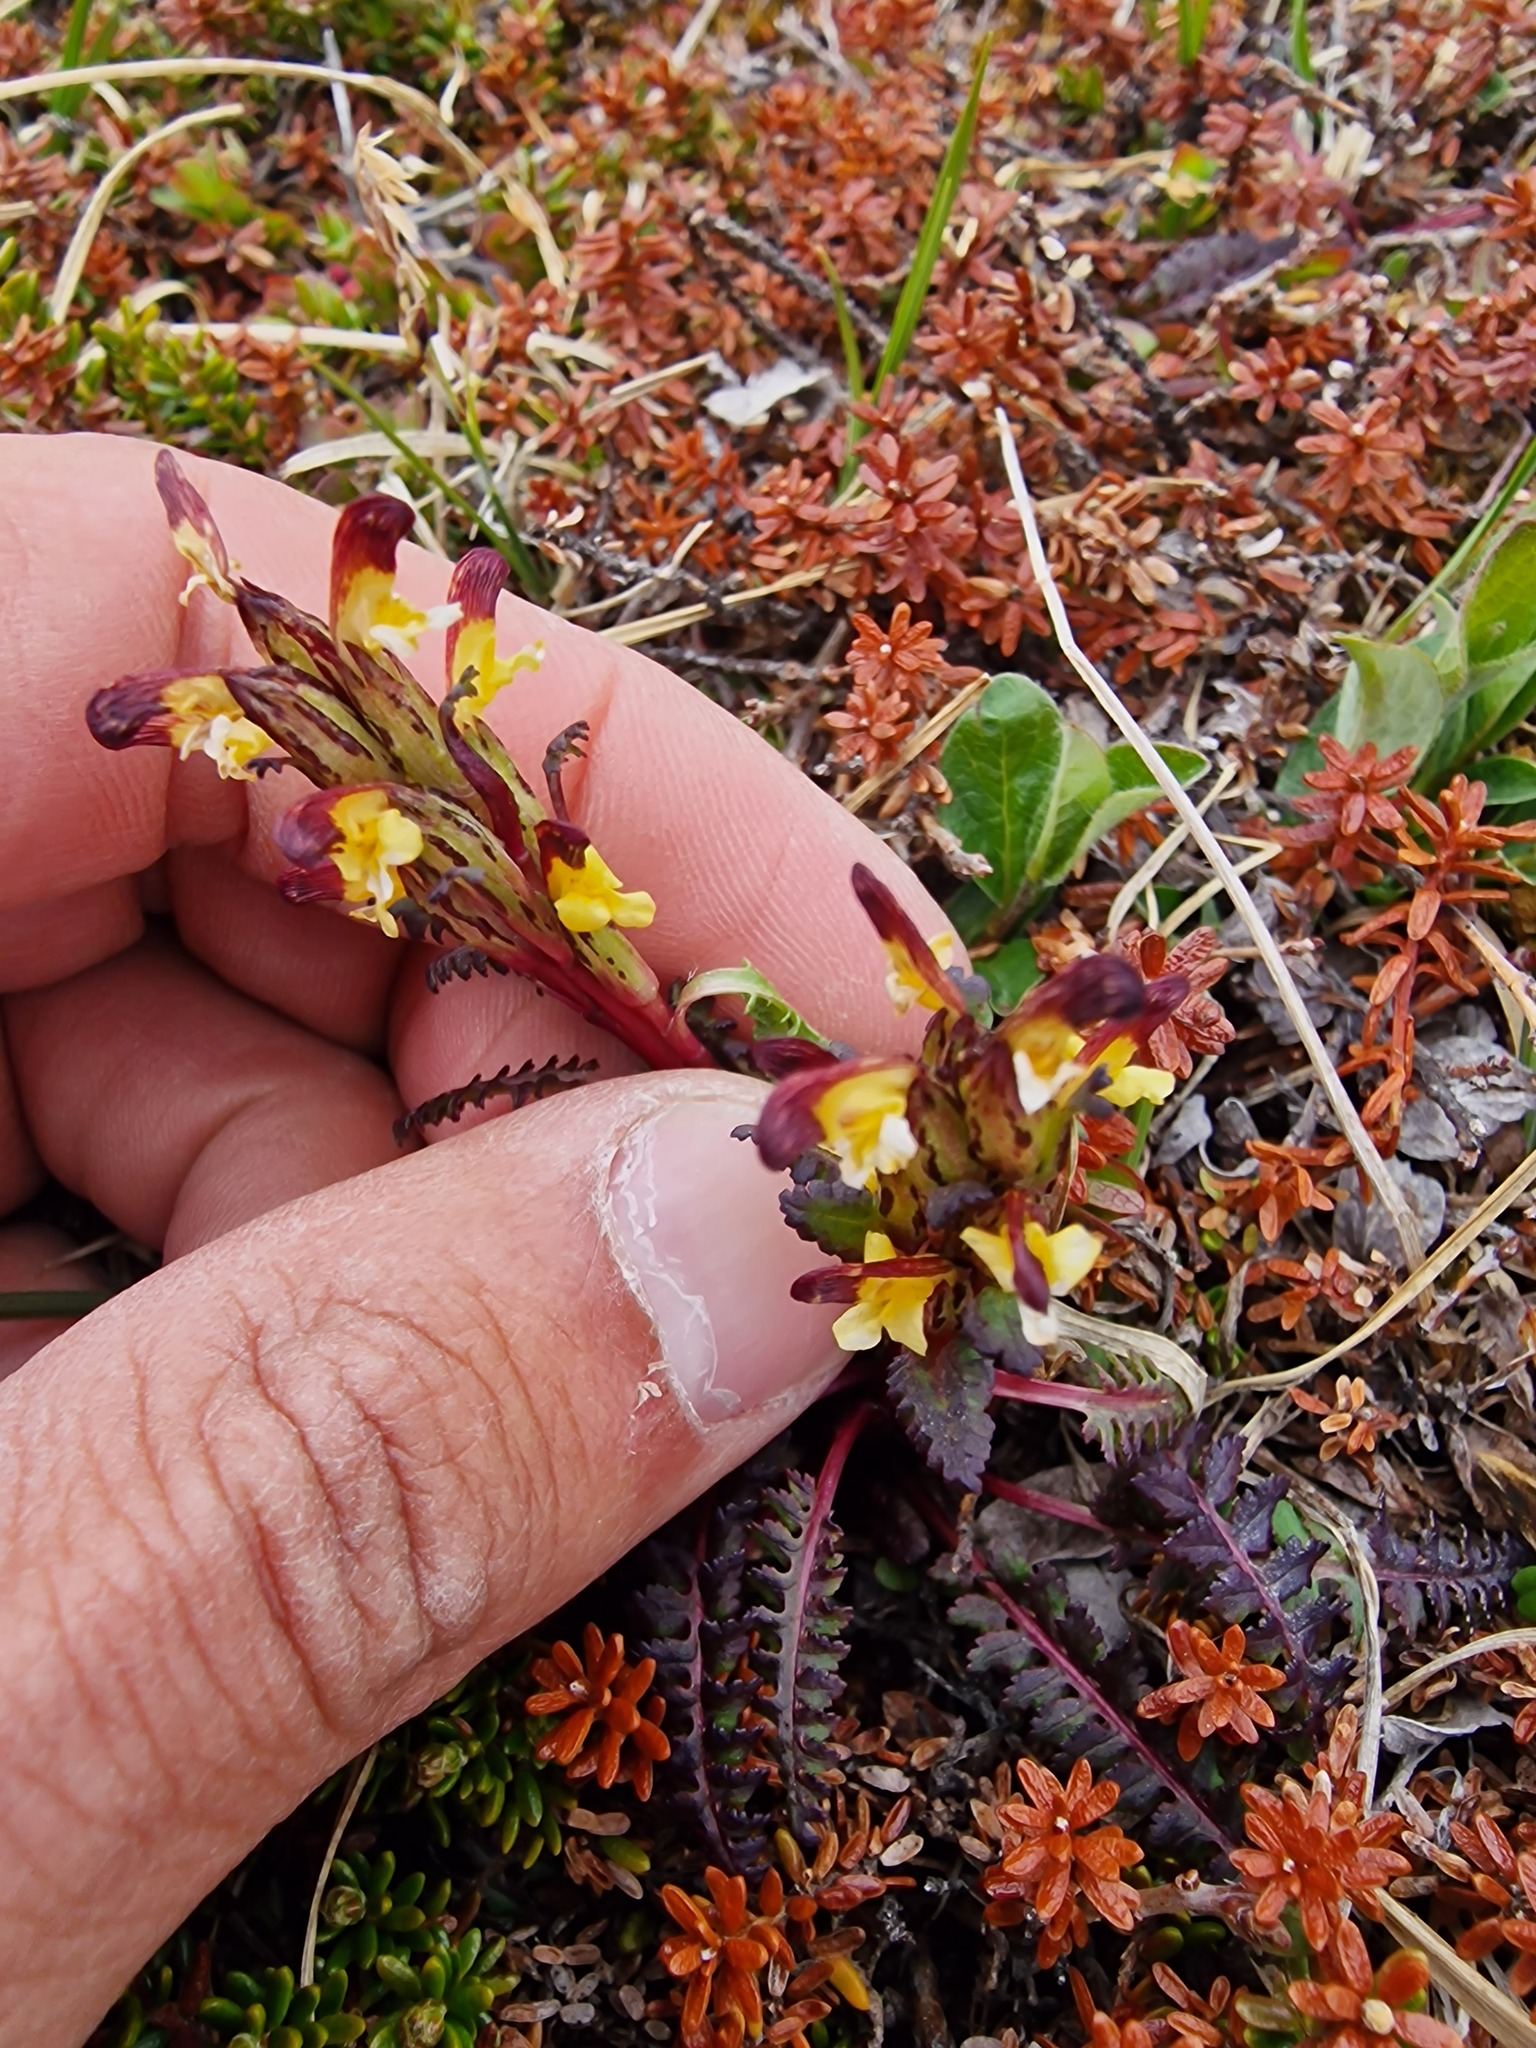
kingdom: Plantae
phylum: Tracheophyta
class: Magnoliopsida
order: Lamiales
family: Orobanchaceae
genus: Pedicularis
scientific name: Pedicularis flammea
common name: Flame-coloured lousewort
